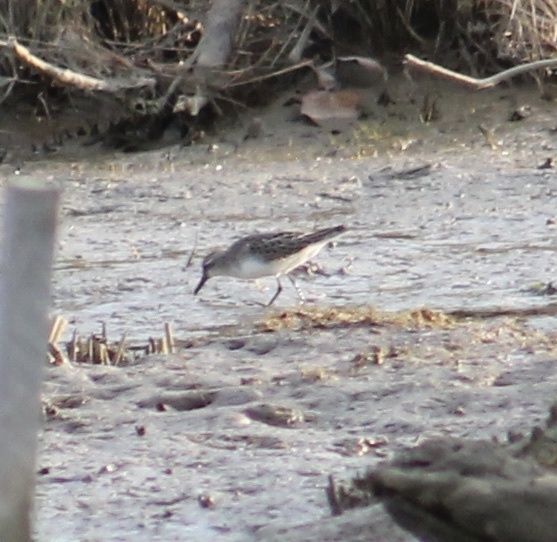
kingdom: Animalia
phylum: Chordata
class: Aves
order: Charadriiformes
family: Scolopacidae
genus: Calidris
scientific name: Calidris pusilla
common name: Semipalmated sandpiper
